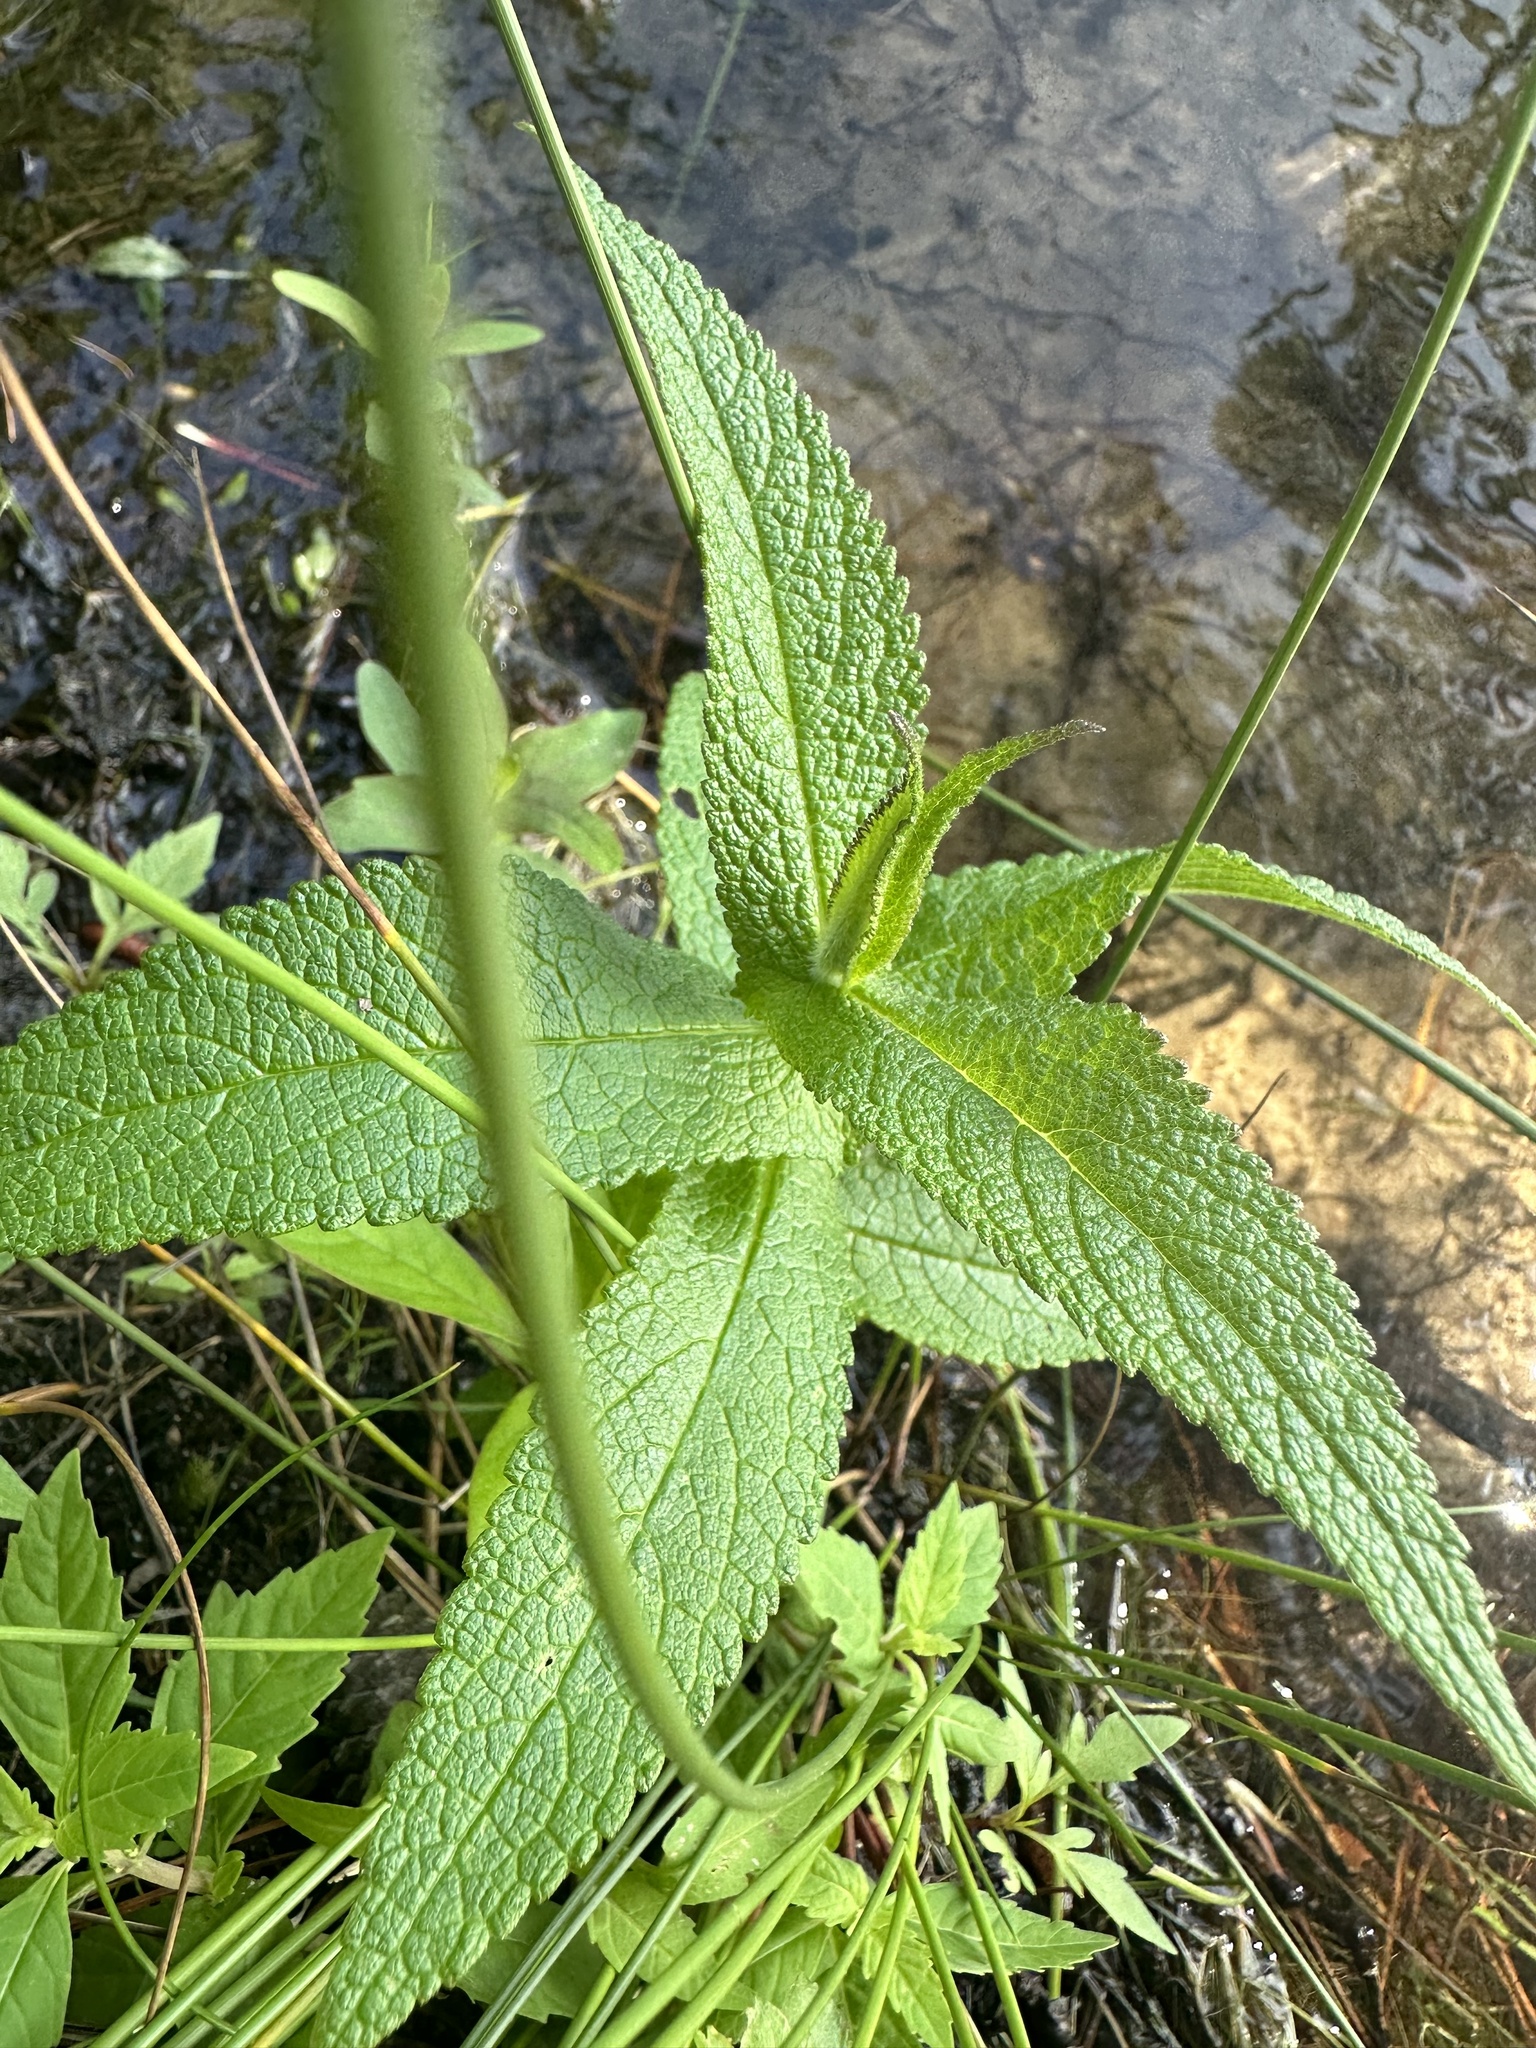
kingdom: Plantae
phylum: Tracheophyta
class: Magnoliopsida
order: Asterales
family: Asteraceae
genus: Eupatorium
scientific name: Eupatorium perfoliatum
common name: Boneset
